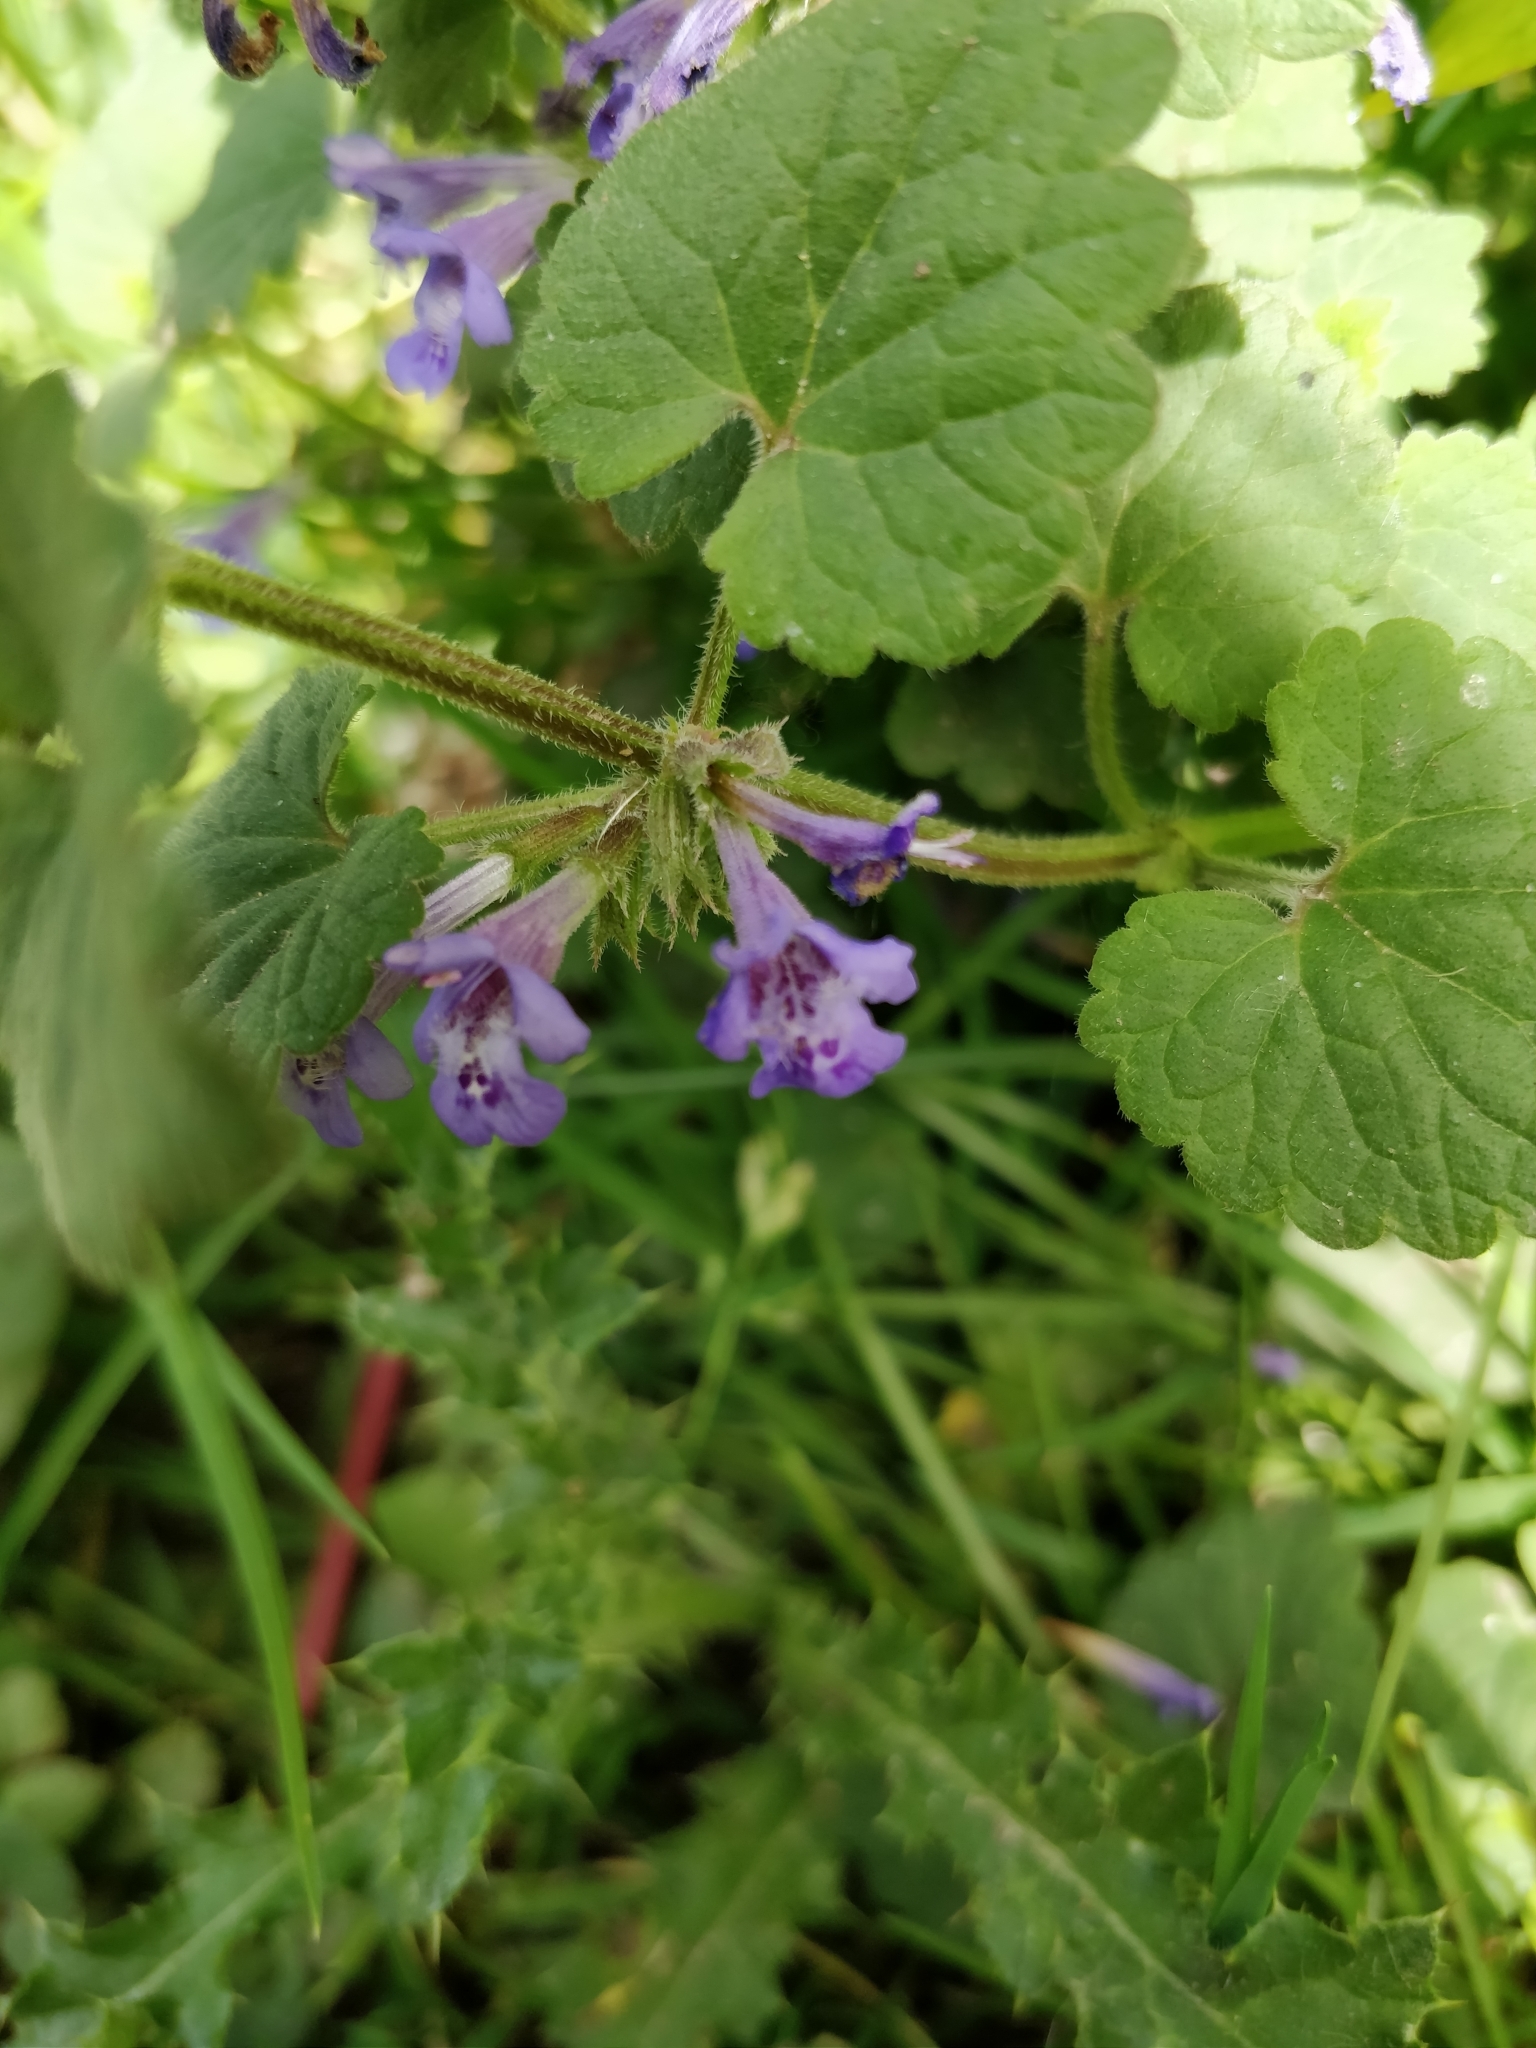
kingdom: Plantae
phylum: Tracheophyta
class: Magnoliopsida
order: Lamiales
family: Lamiaceae
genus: Glechoma
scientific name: Glechoma hederacea
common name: Ground ivy
